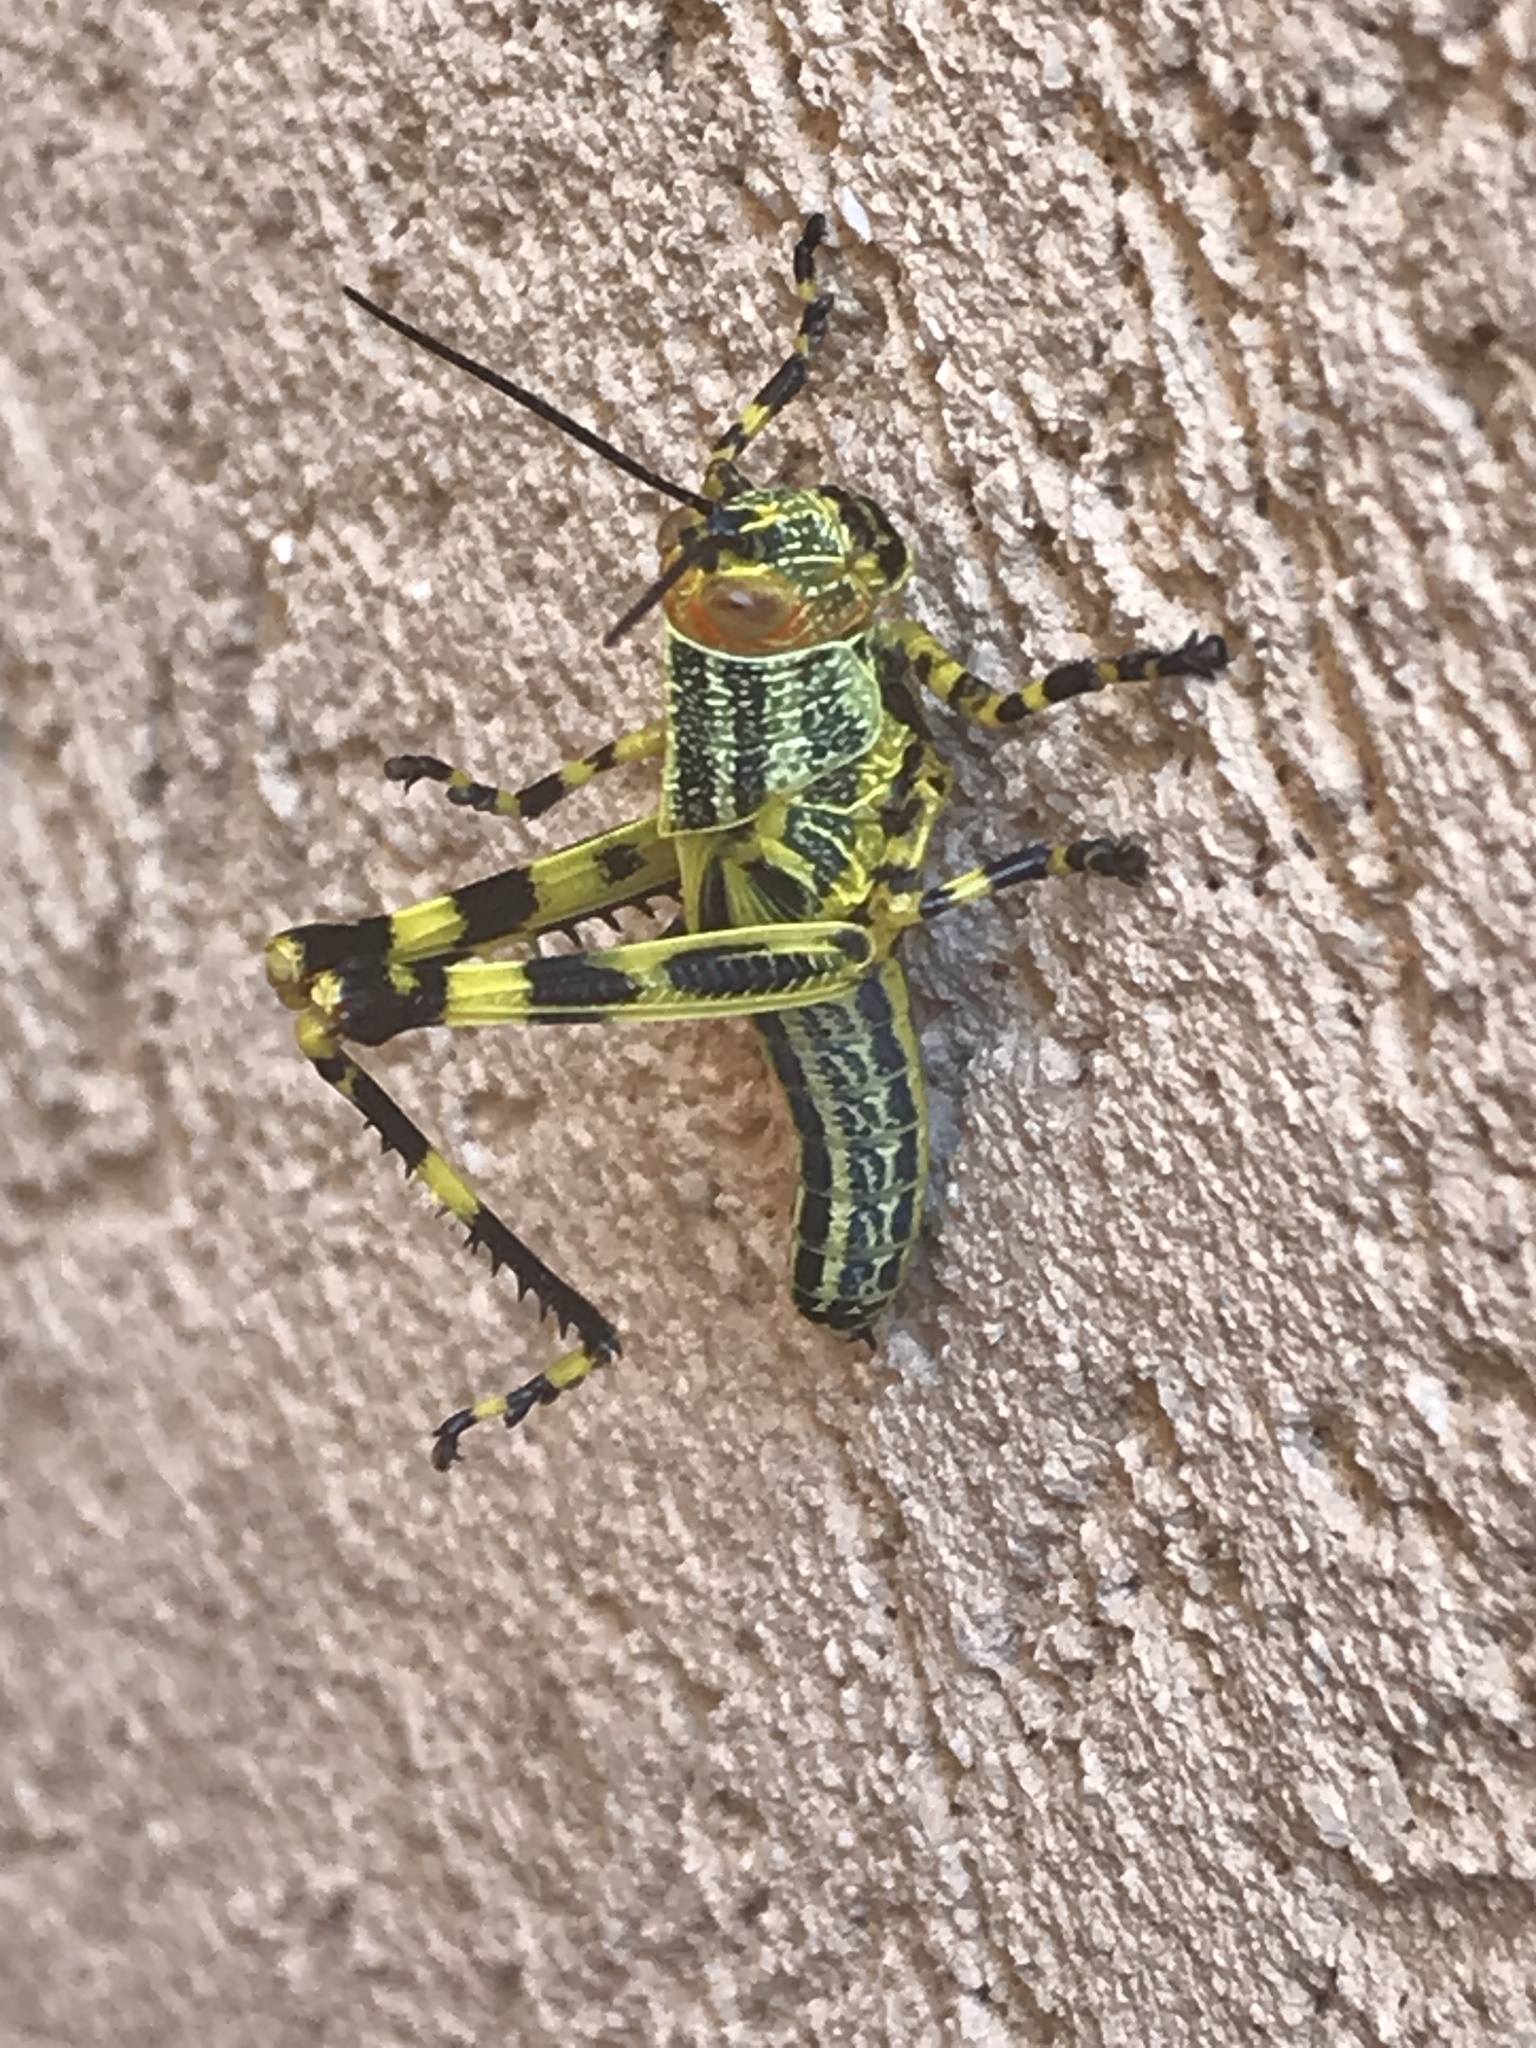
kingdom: Animalia
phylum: Arthropoda
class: Insecta
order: Orthoptera
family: Romaleidae
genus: Zoniopoda
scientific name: Zoniopoda tarsata
